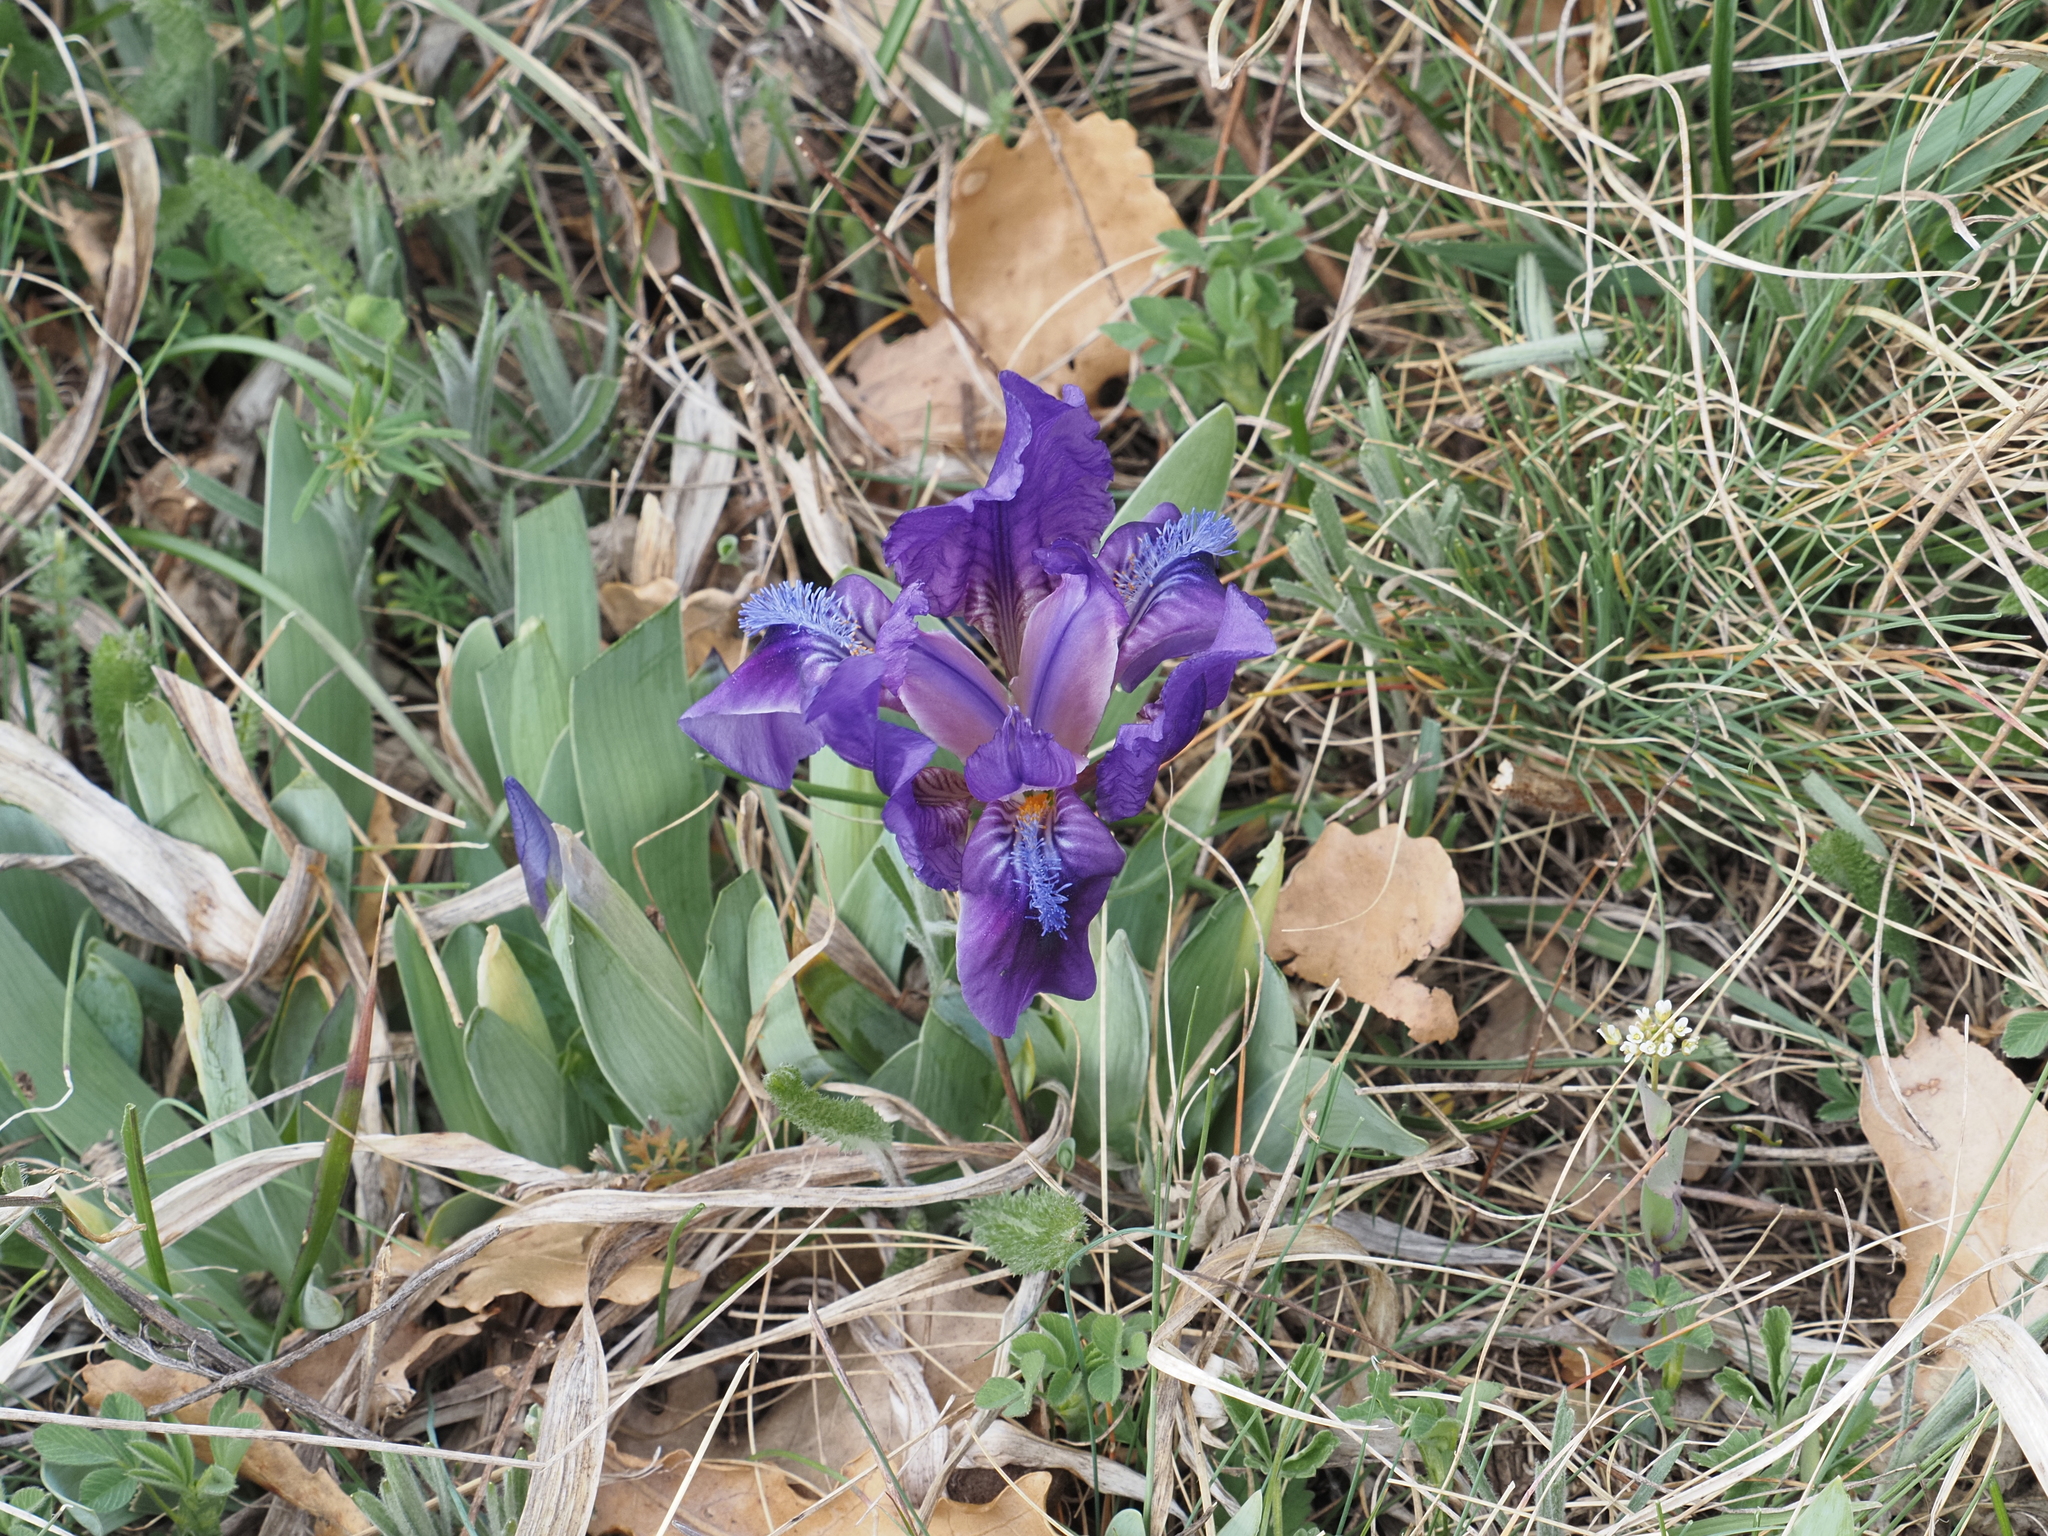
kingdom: Plantae
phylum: Tracheophyta
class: Liliopsida
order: Asparagales
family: Iridaceae
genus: Iris
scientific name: Iris pumila
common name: Dwarf iris
